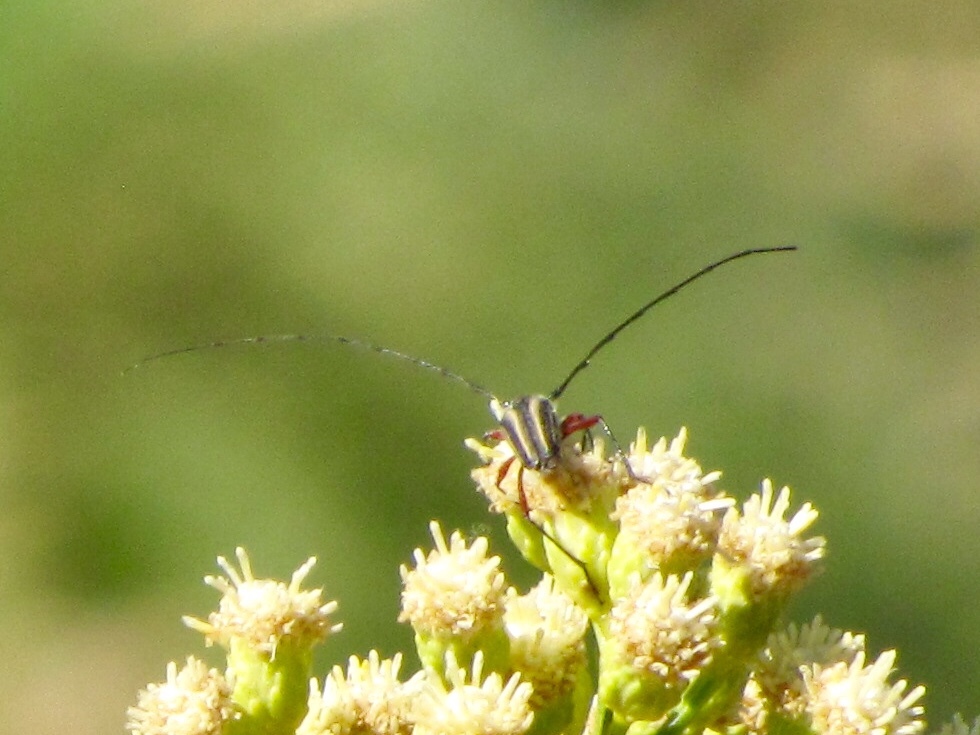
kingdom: Animalia
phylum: Arthropoda
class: Insecta
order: Coleoptera
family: Cerambycidae
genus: Sphaenothecus
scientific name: Sphaenothecus bilineatus
